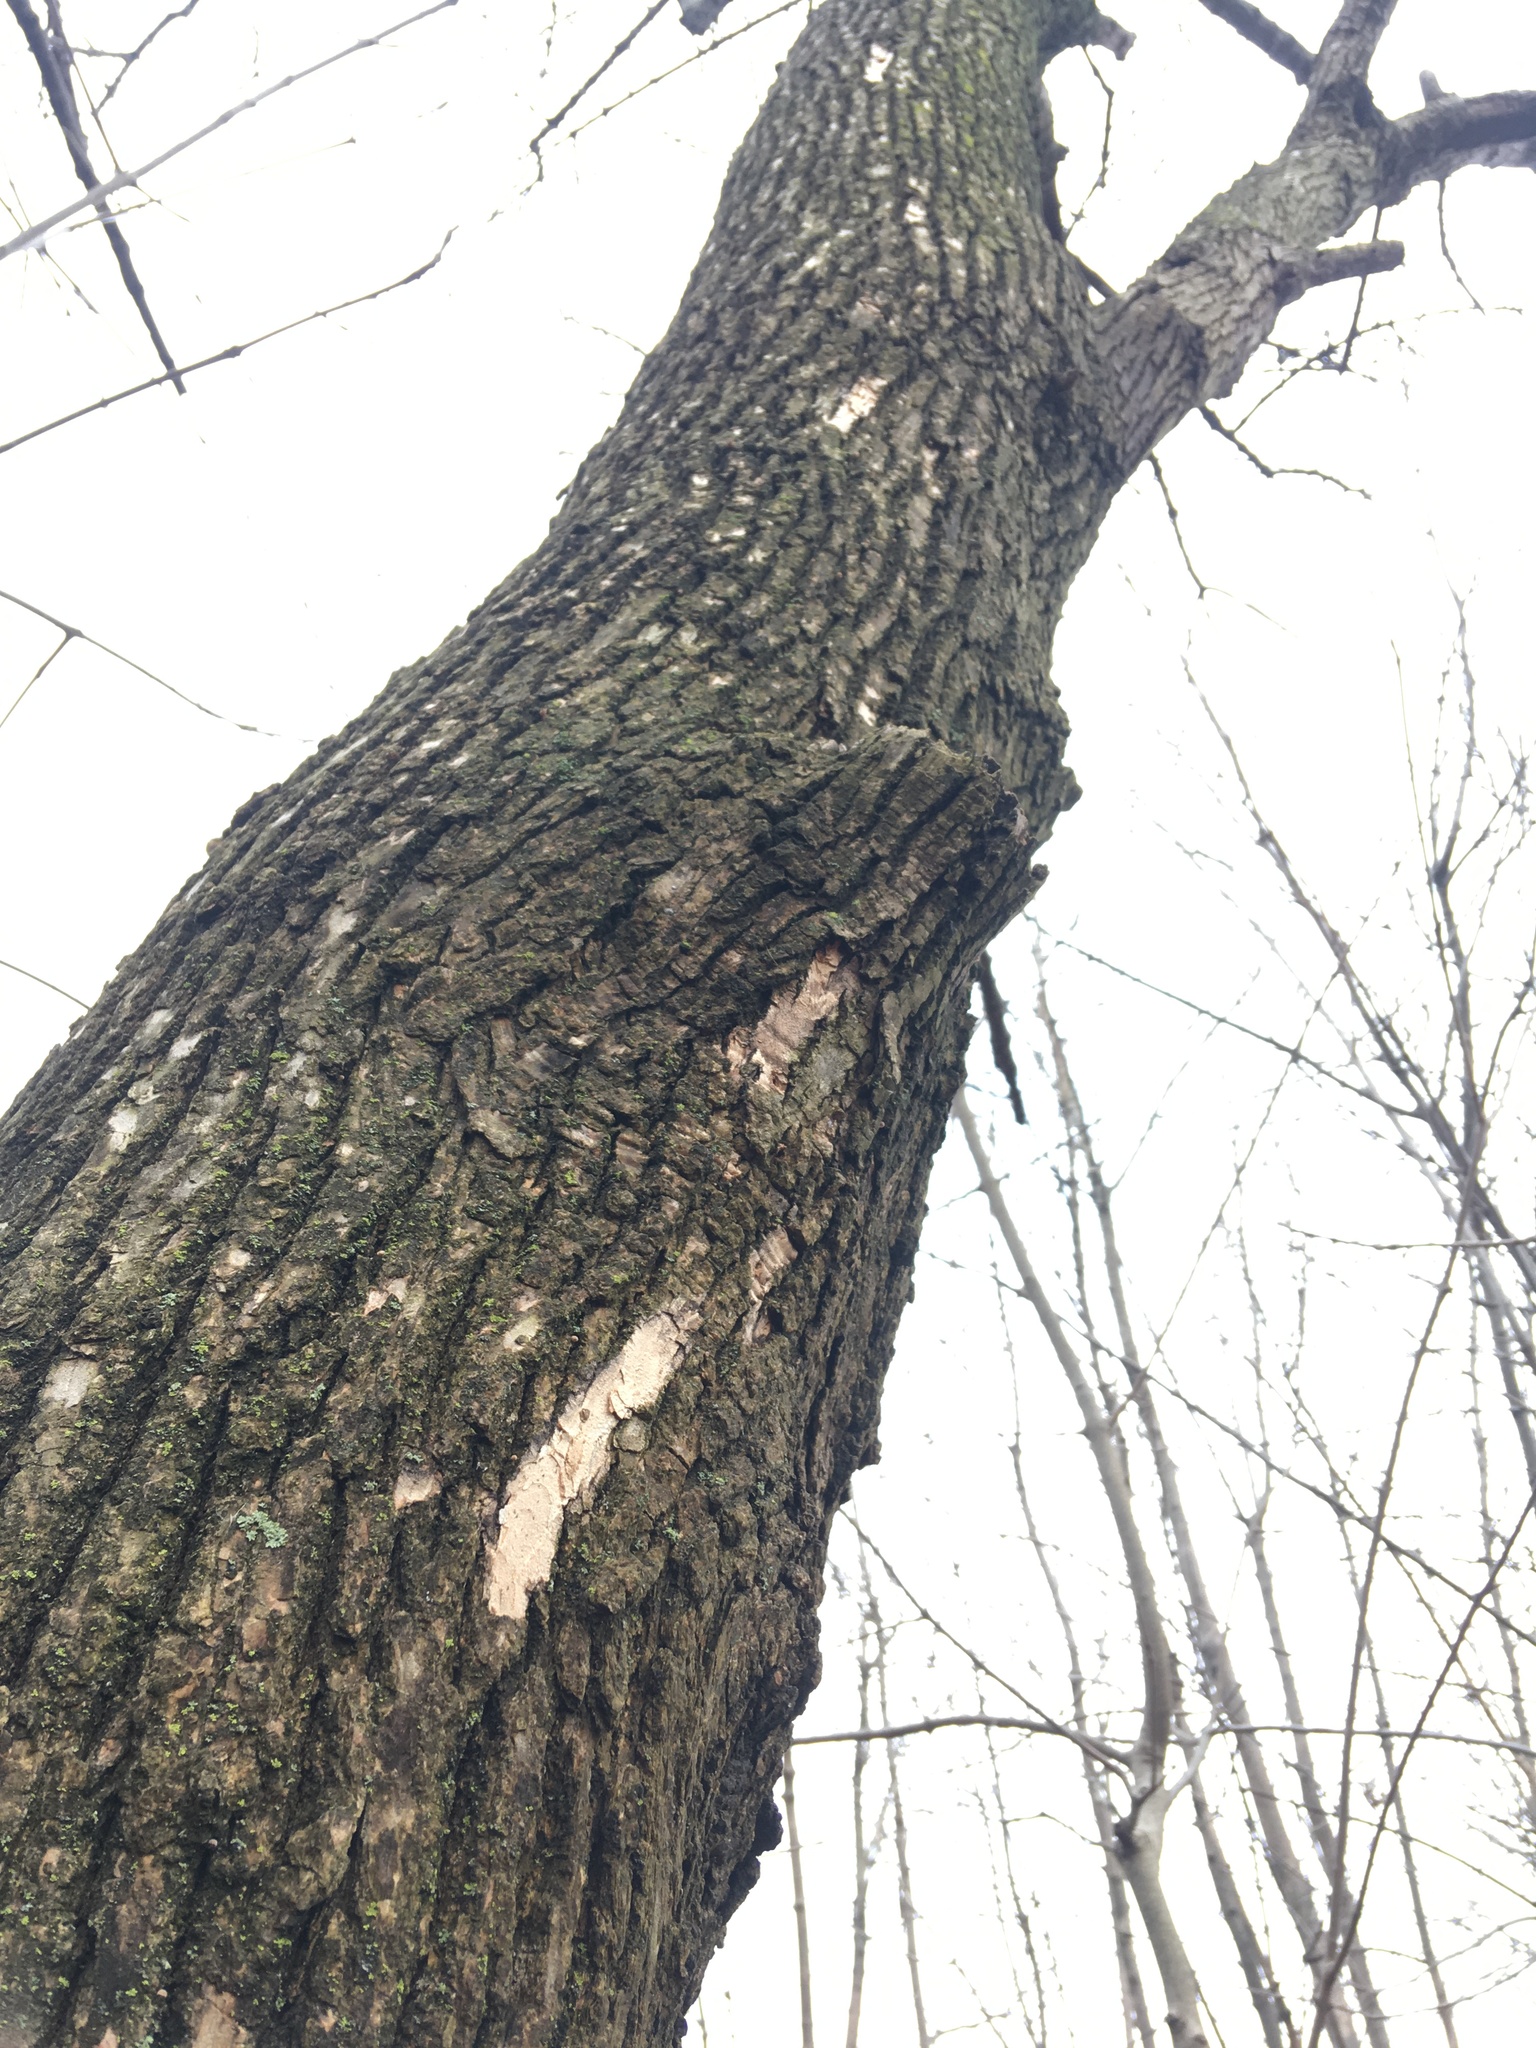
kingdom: Plantae
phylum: Tracheophyta
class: Magnoliopsida
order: Lamiales
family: Oleaceae
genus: Fraxinus
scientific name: Fraxinus pennsylvanica
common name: Green ash
